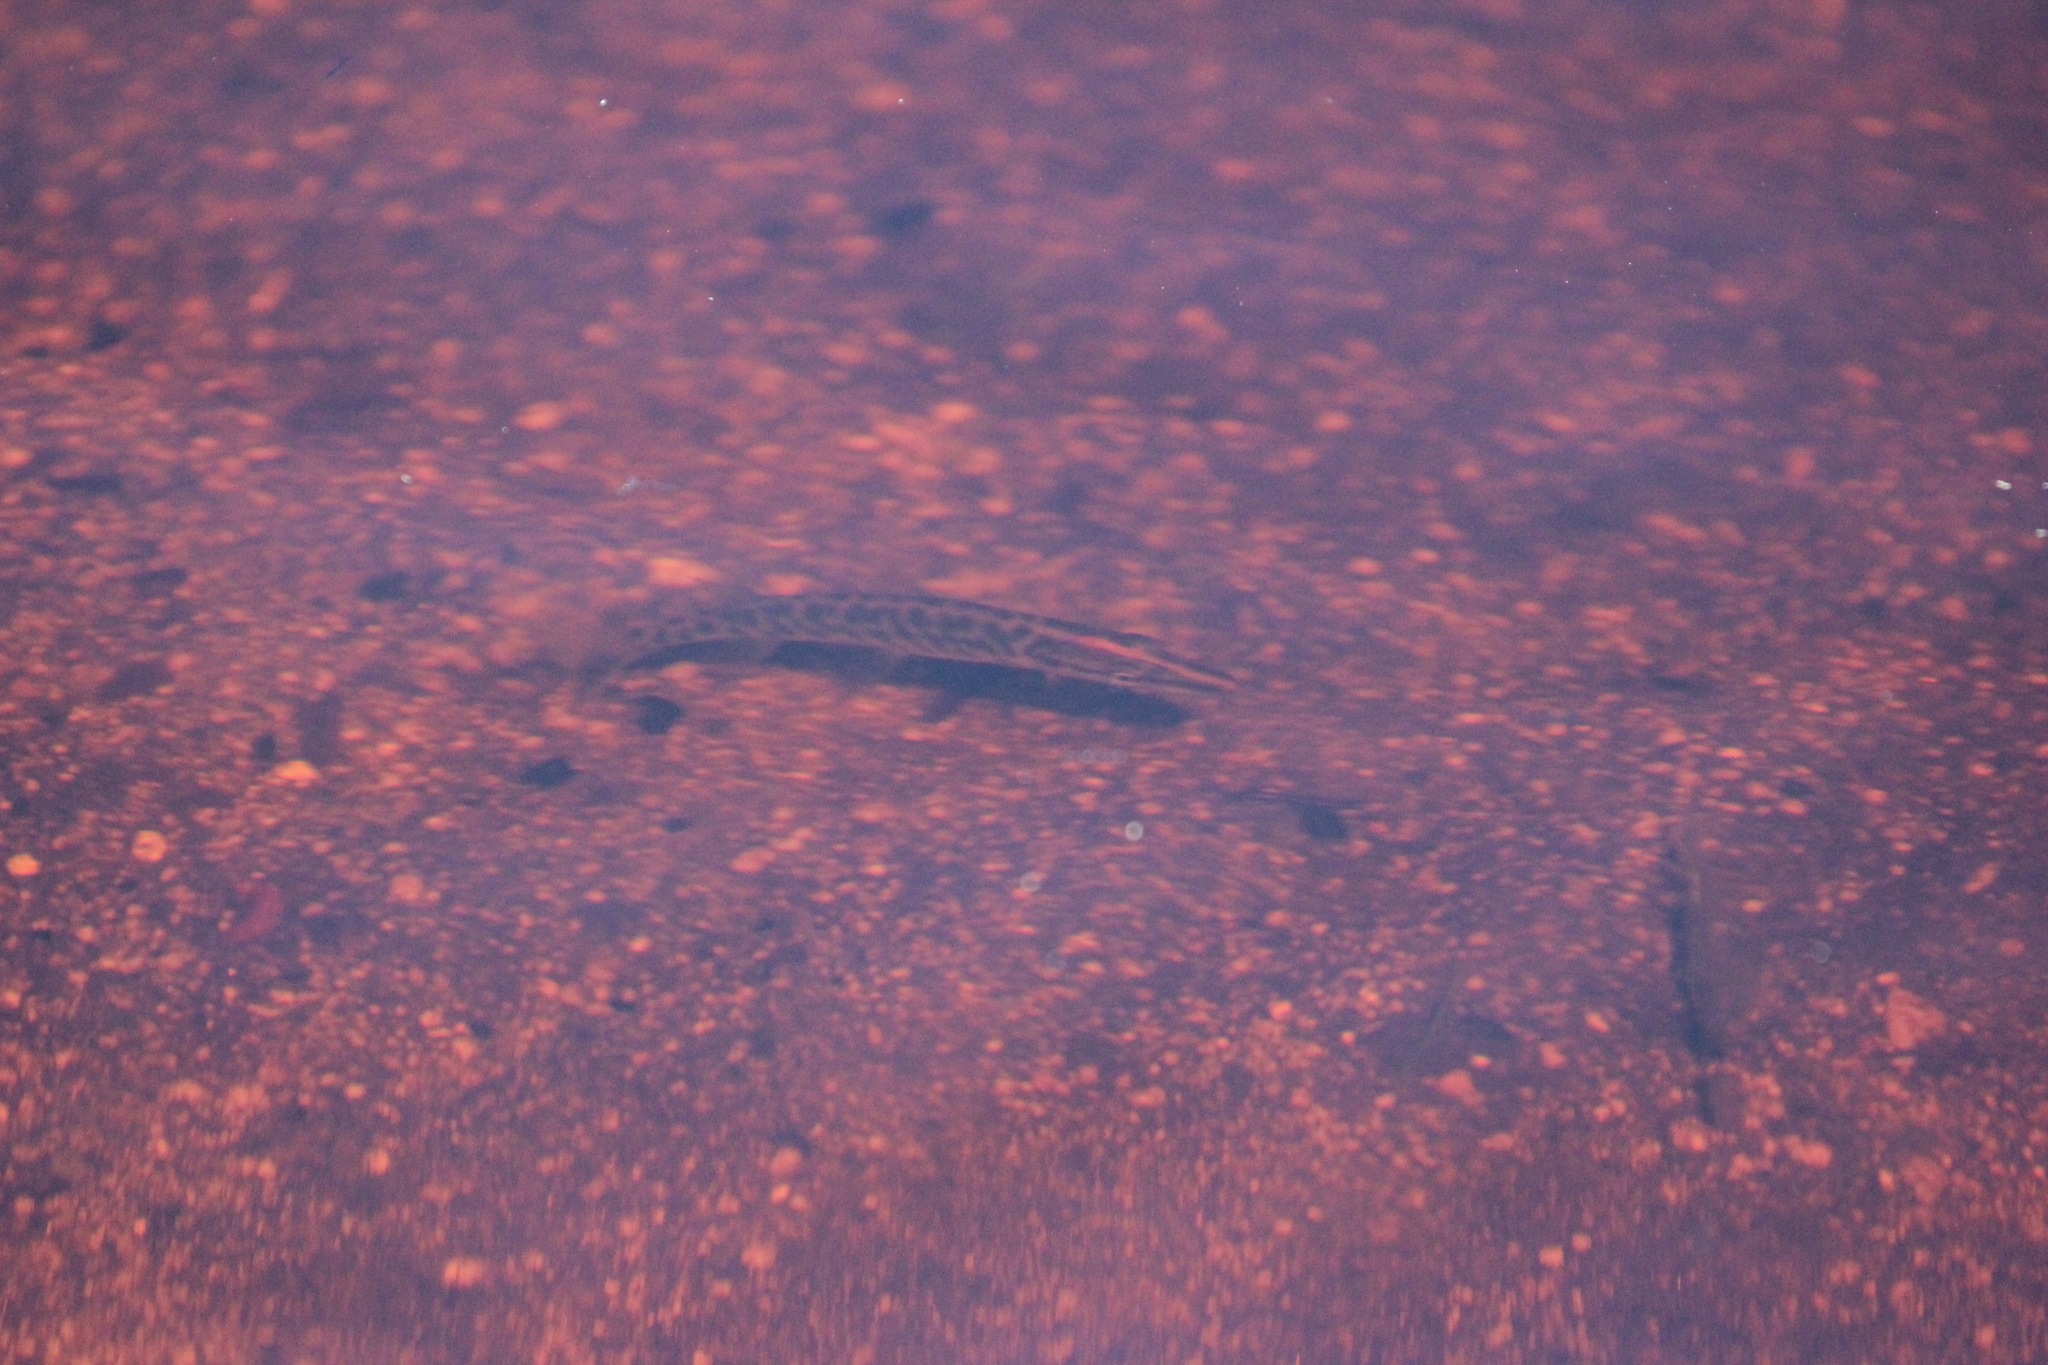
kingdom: Animalia
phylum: Chordata
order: Esociformes
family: Esocidae
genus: Esox
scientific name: Esox lucius
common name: Northern pike
